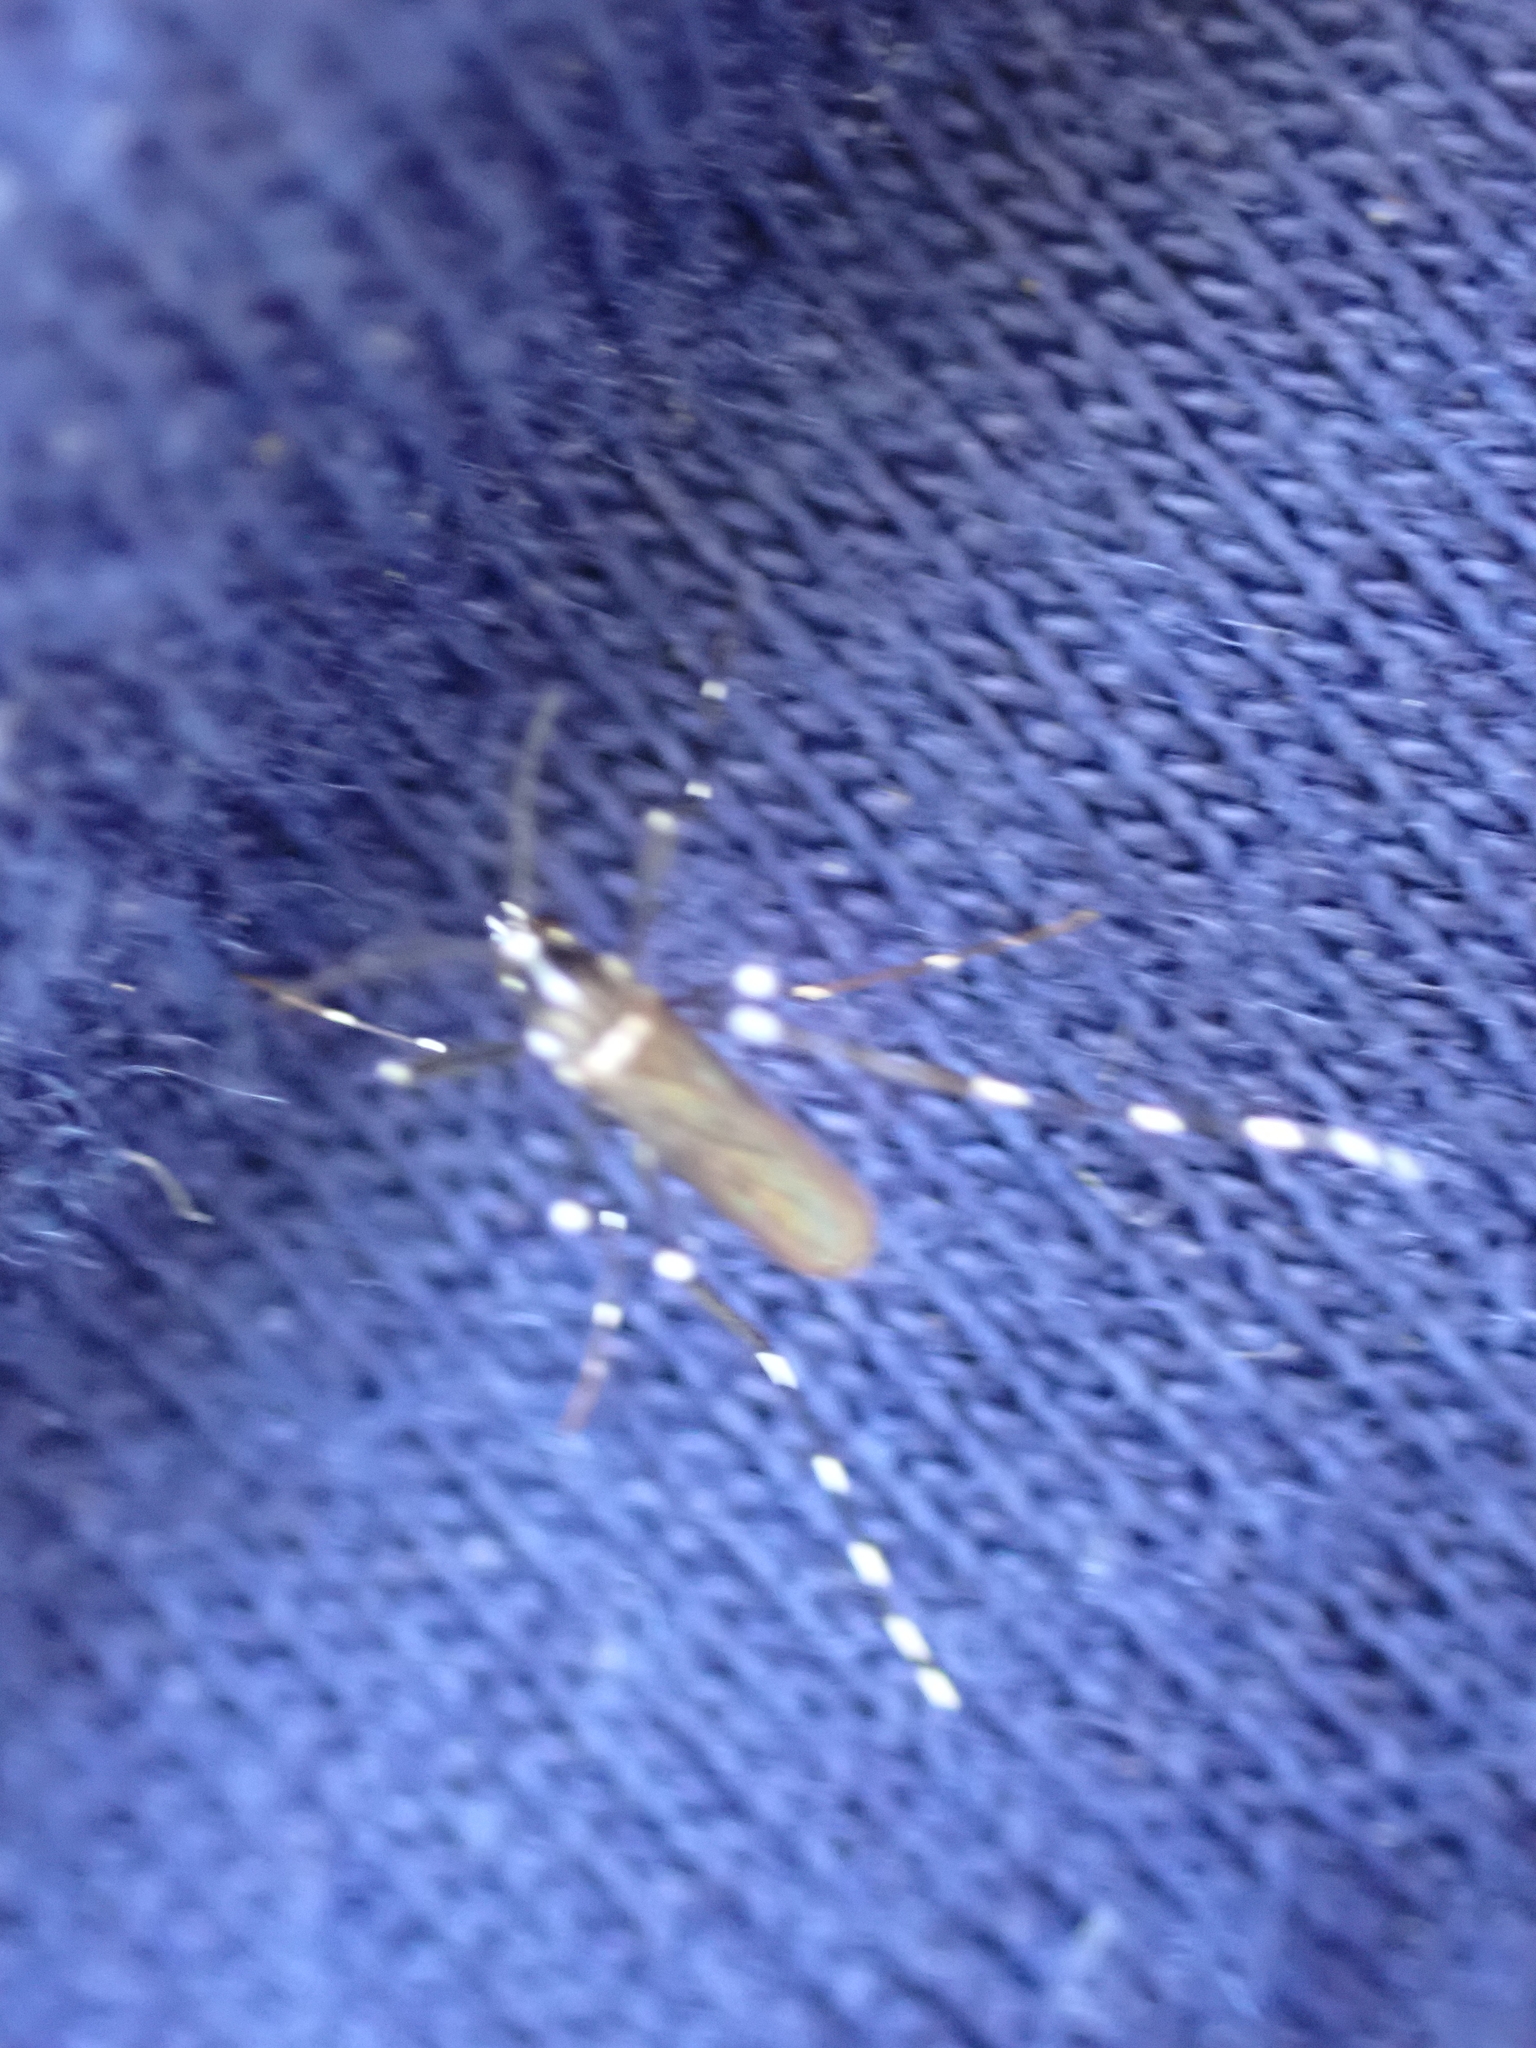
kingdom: Animalia
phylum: Arthropoda
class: Insecta
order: Diptera
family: Culicidae
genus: Aedes
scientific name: Aedes albopictus
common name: Tiger mosquito
